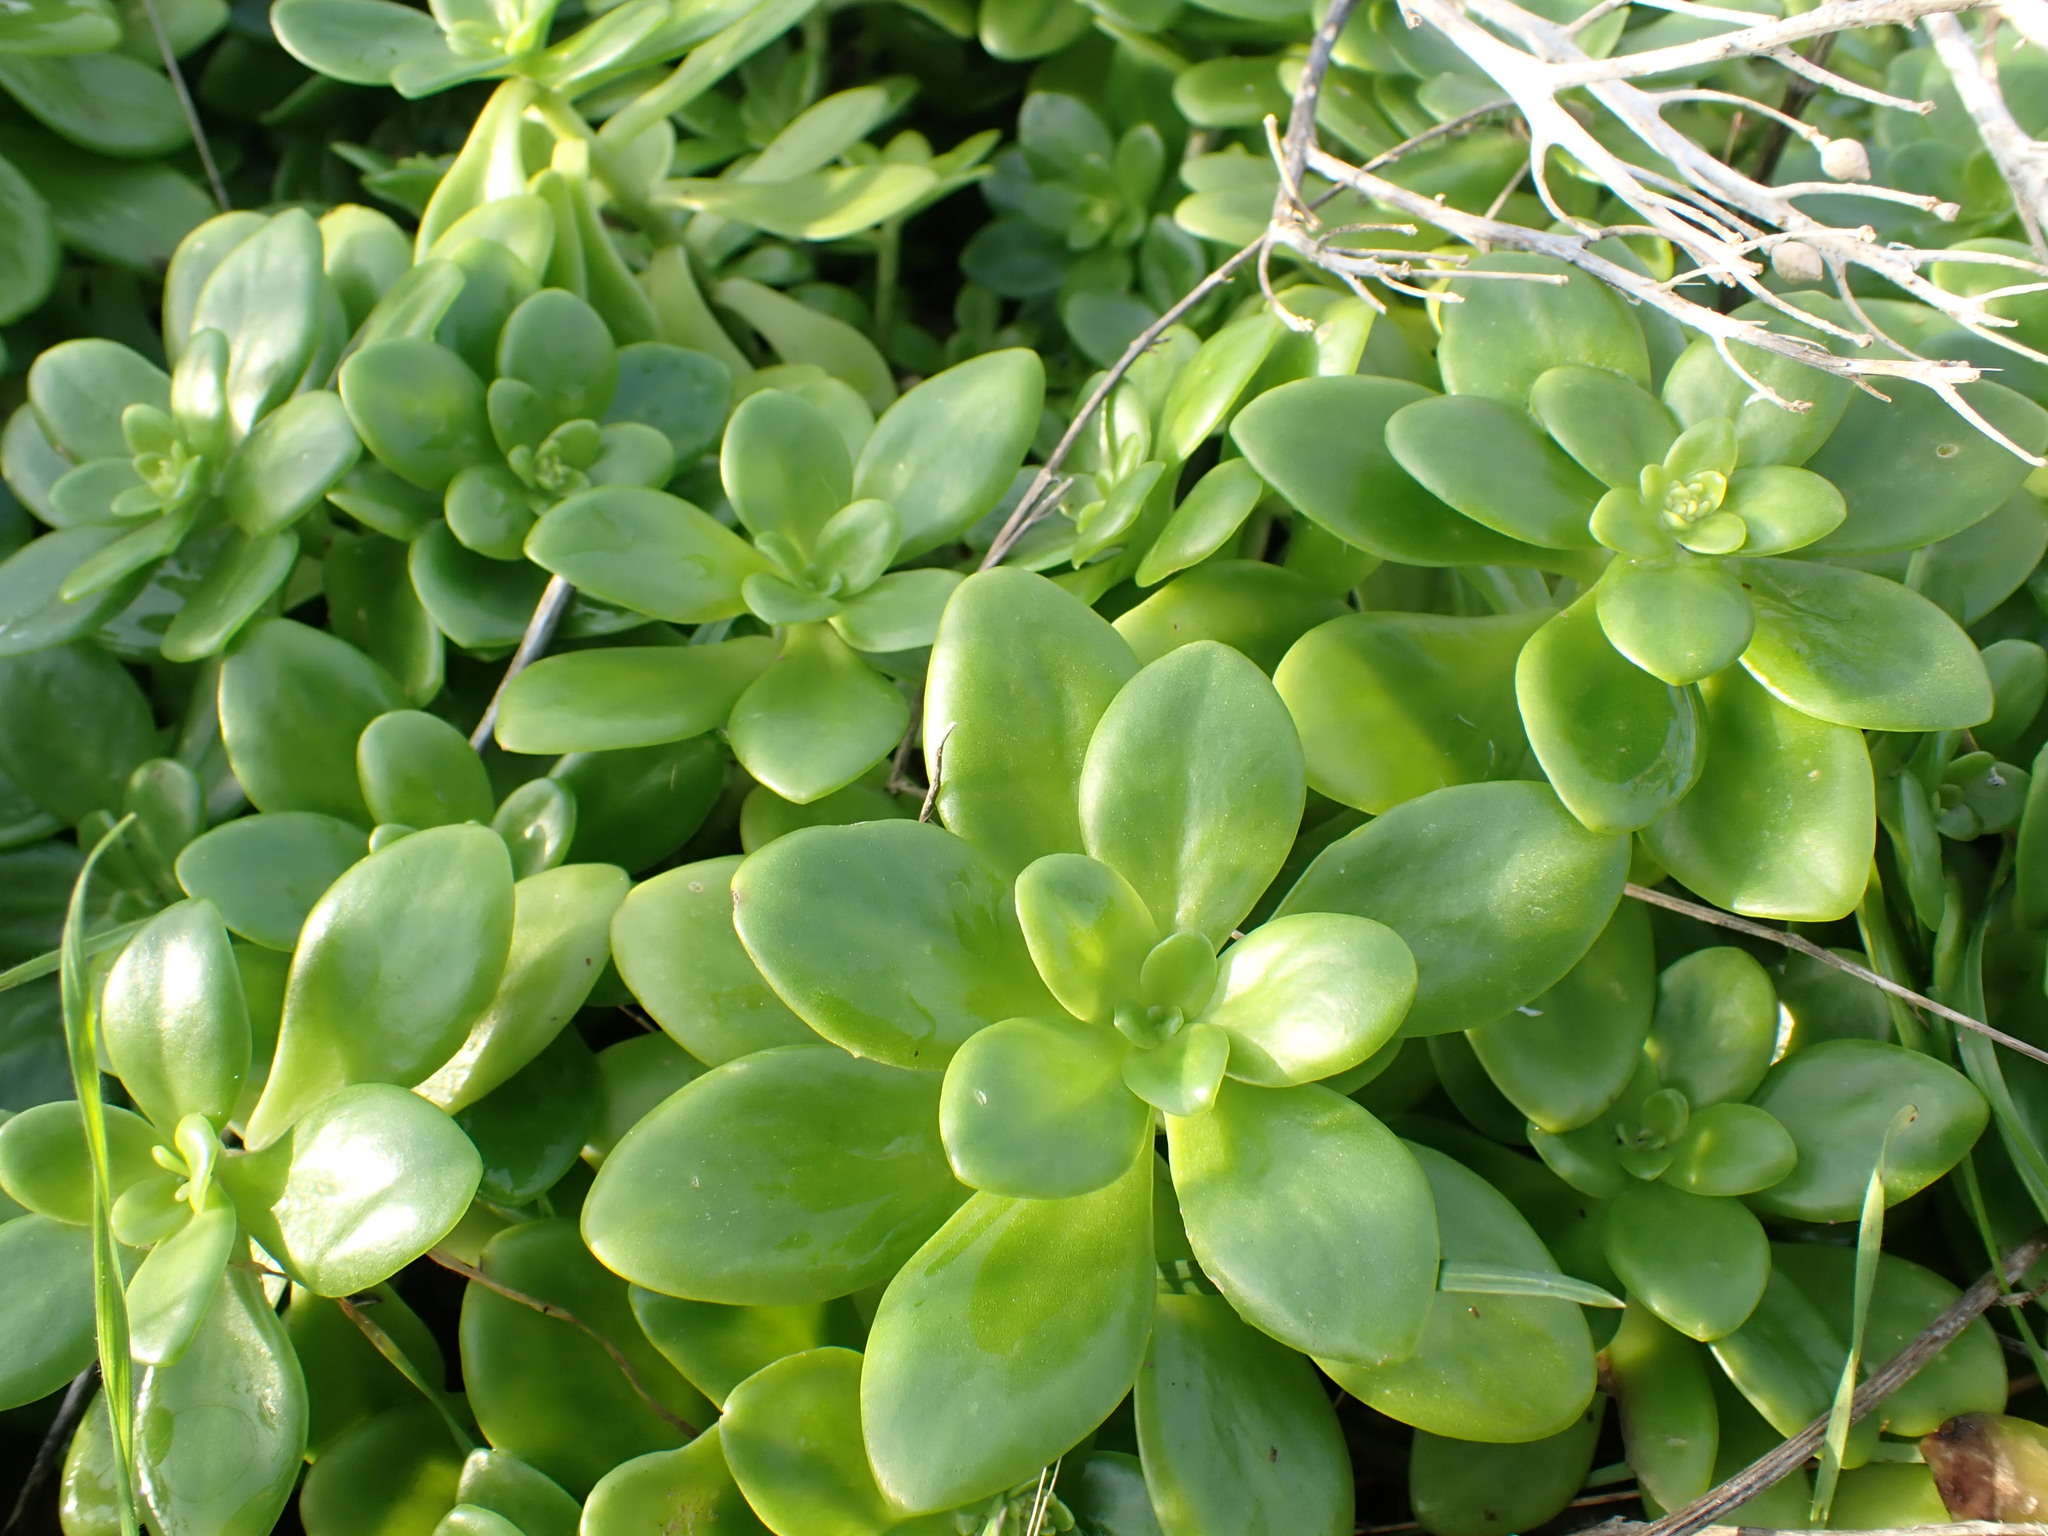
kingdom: Plantae
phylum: Tracheophyta
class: Magnoliopsida
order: Saxifragales
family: Crassulaceae
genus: Sedum
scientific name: Sedum confusum
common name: Lesser mexican-stonecrop
